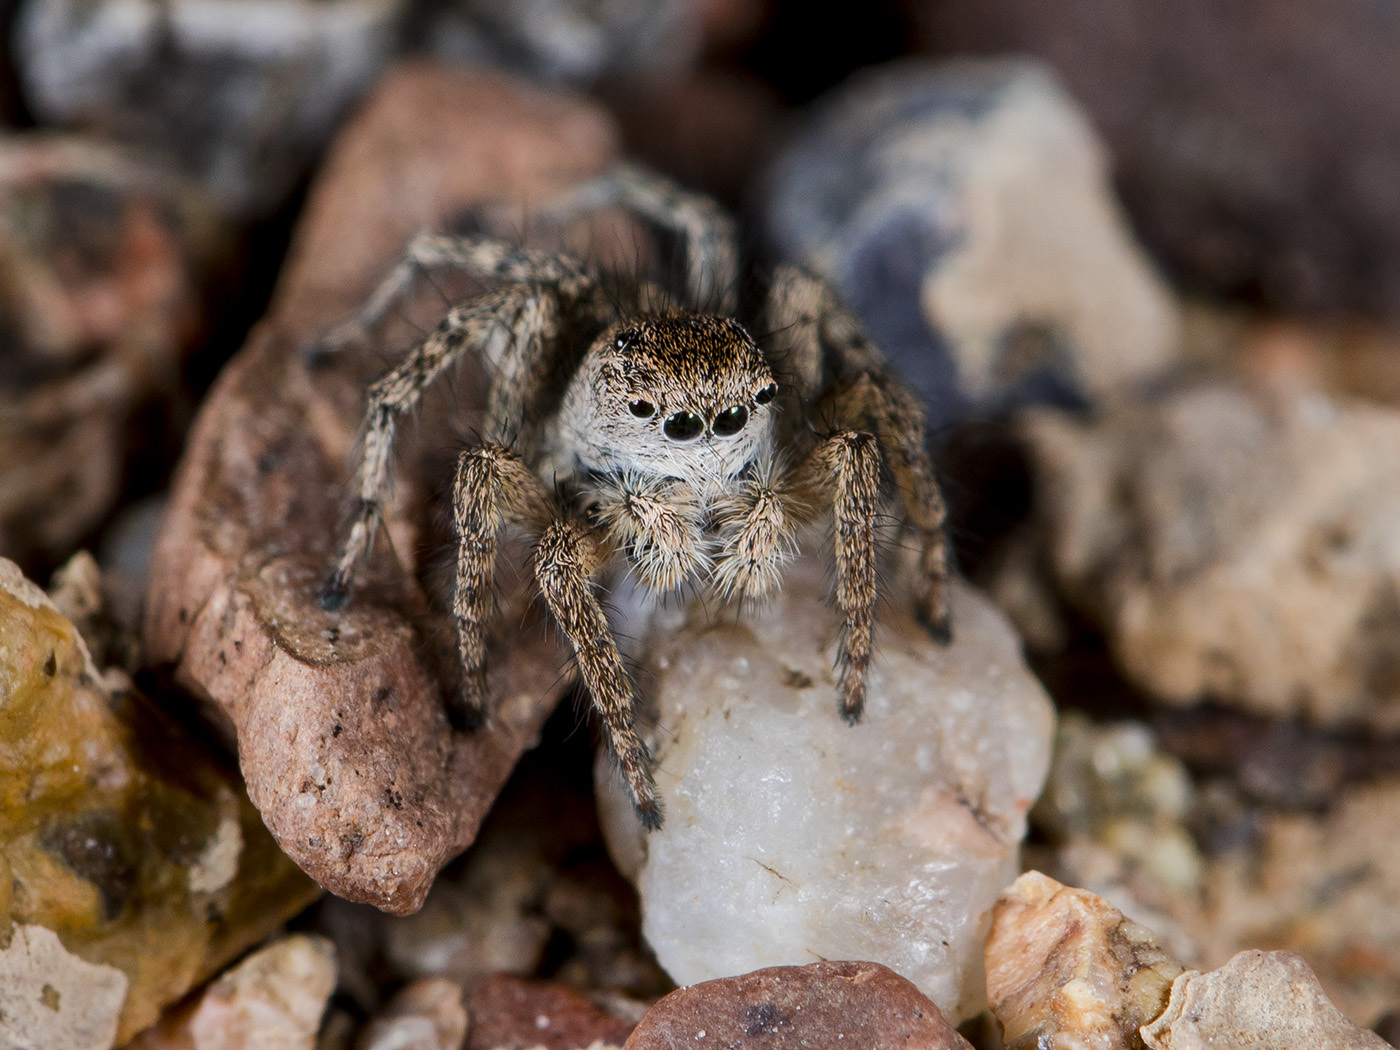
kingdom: Animalia
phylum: Arthropoda
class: Arachnida
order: Araneae
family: Salticidae
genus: Aelurillus
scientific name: Aelurillus dubatolovi
